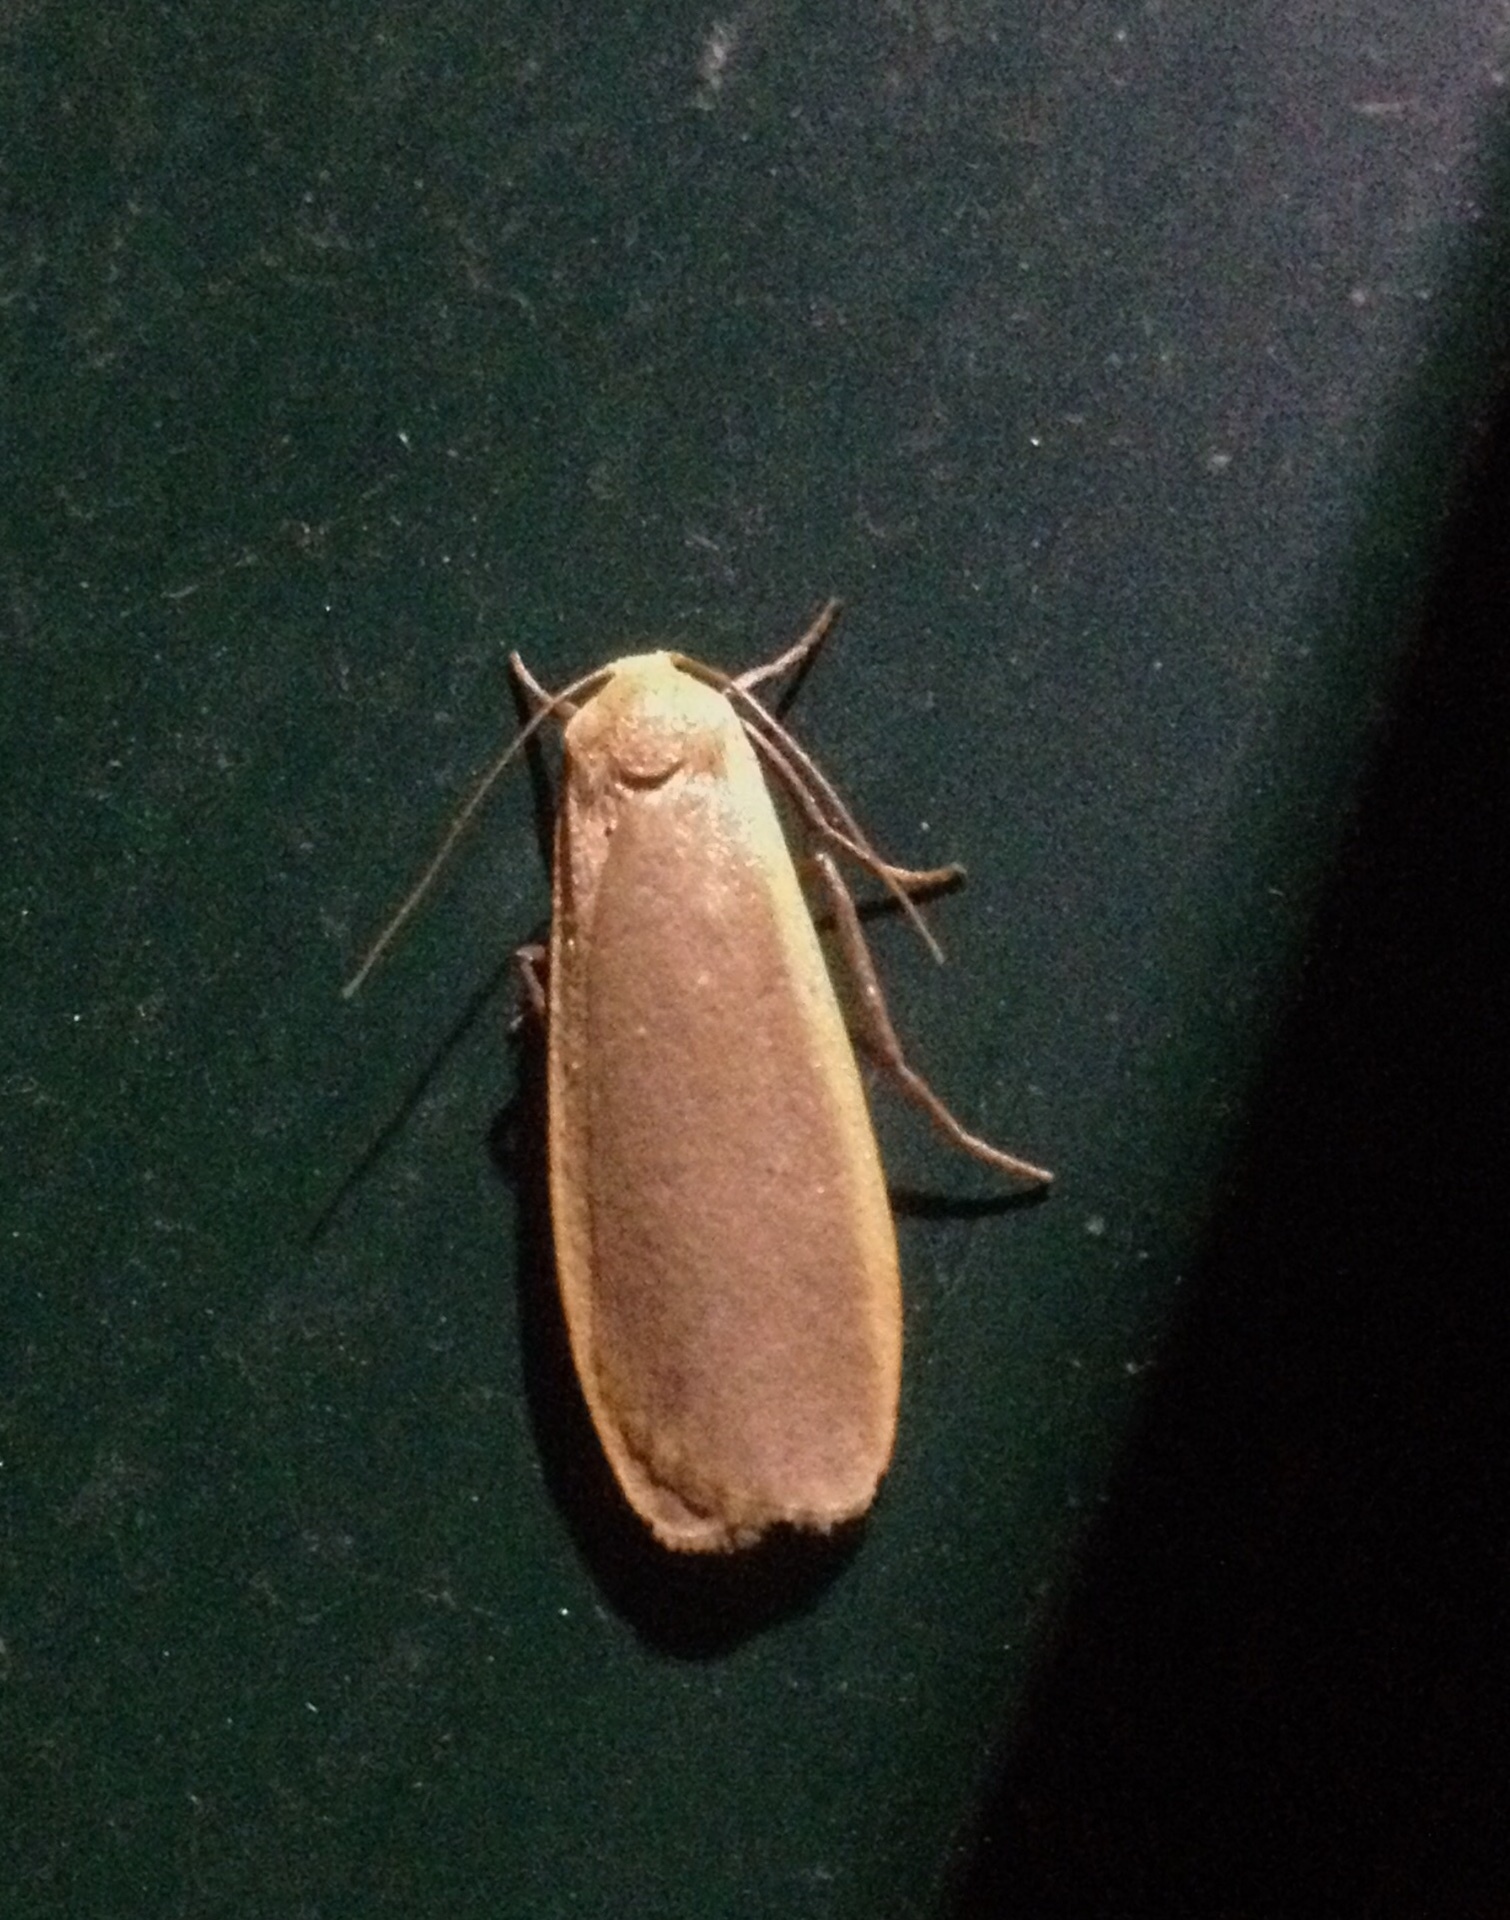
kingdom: Animalia
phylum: Arthropoda
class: Insecta
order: Lepidoptera
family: Erebidae
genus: Katha
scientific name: Katha depressa
